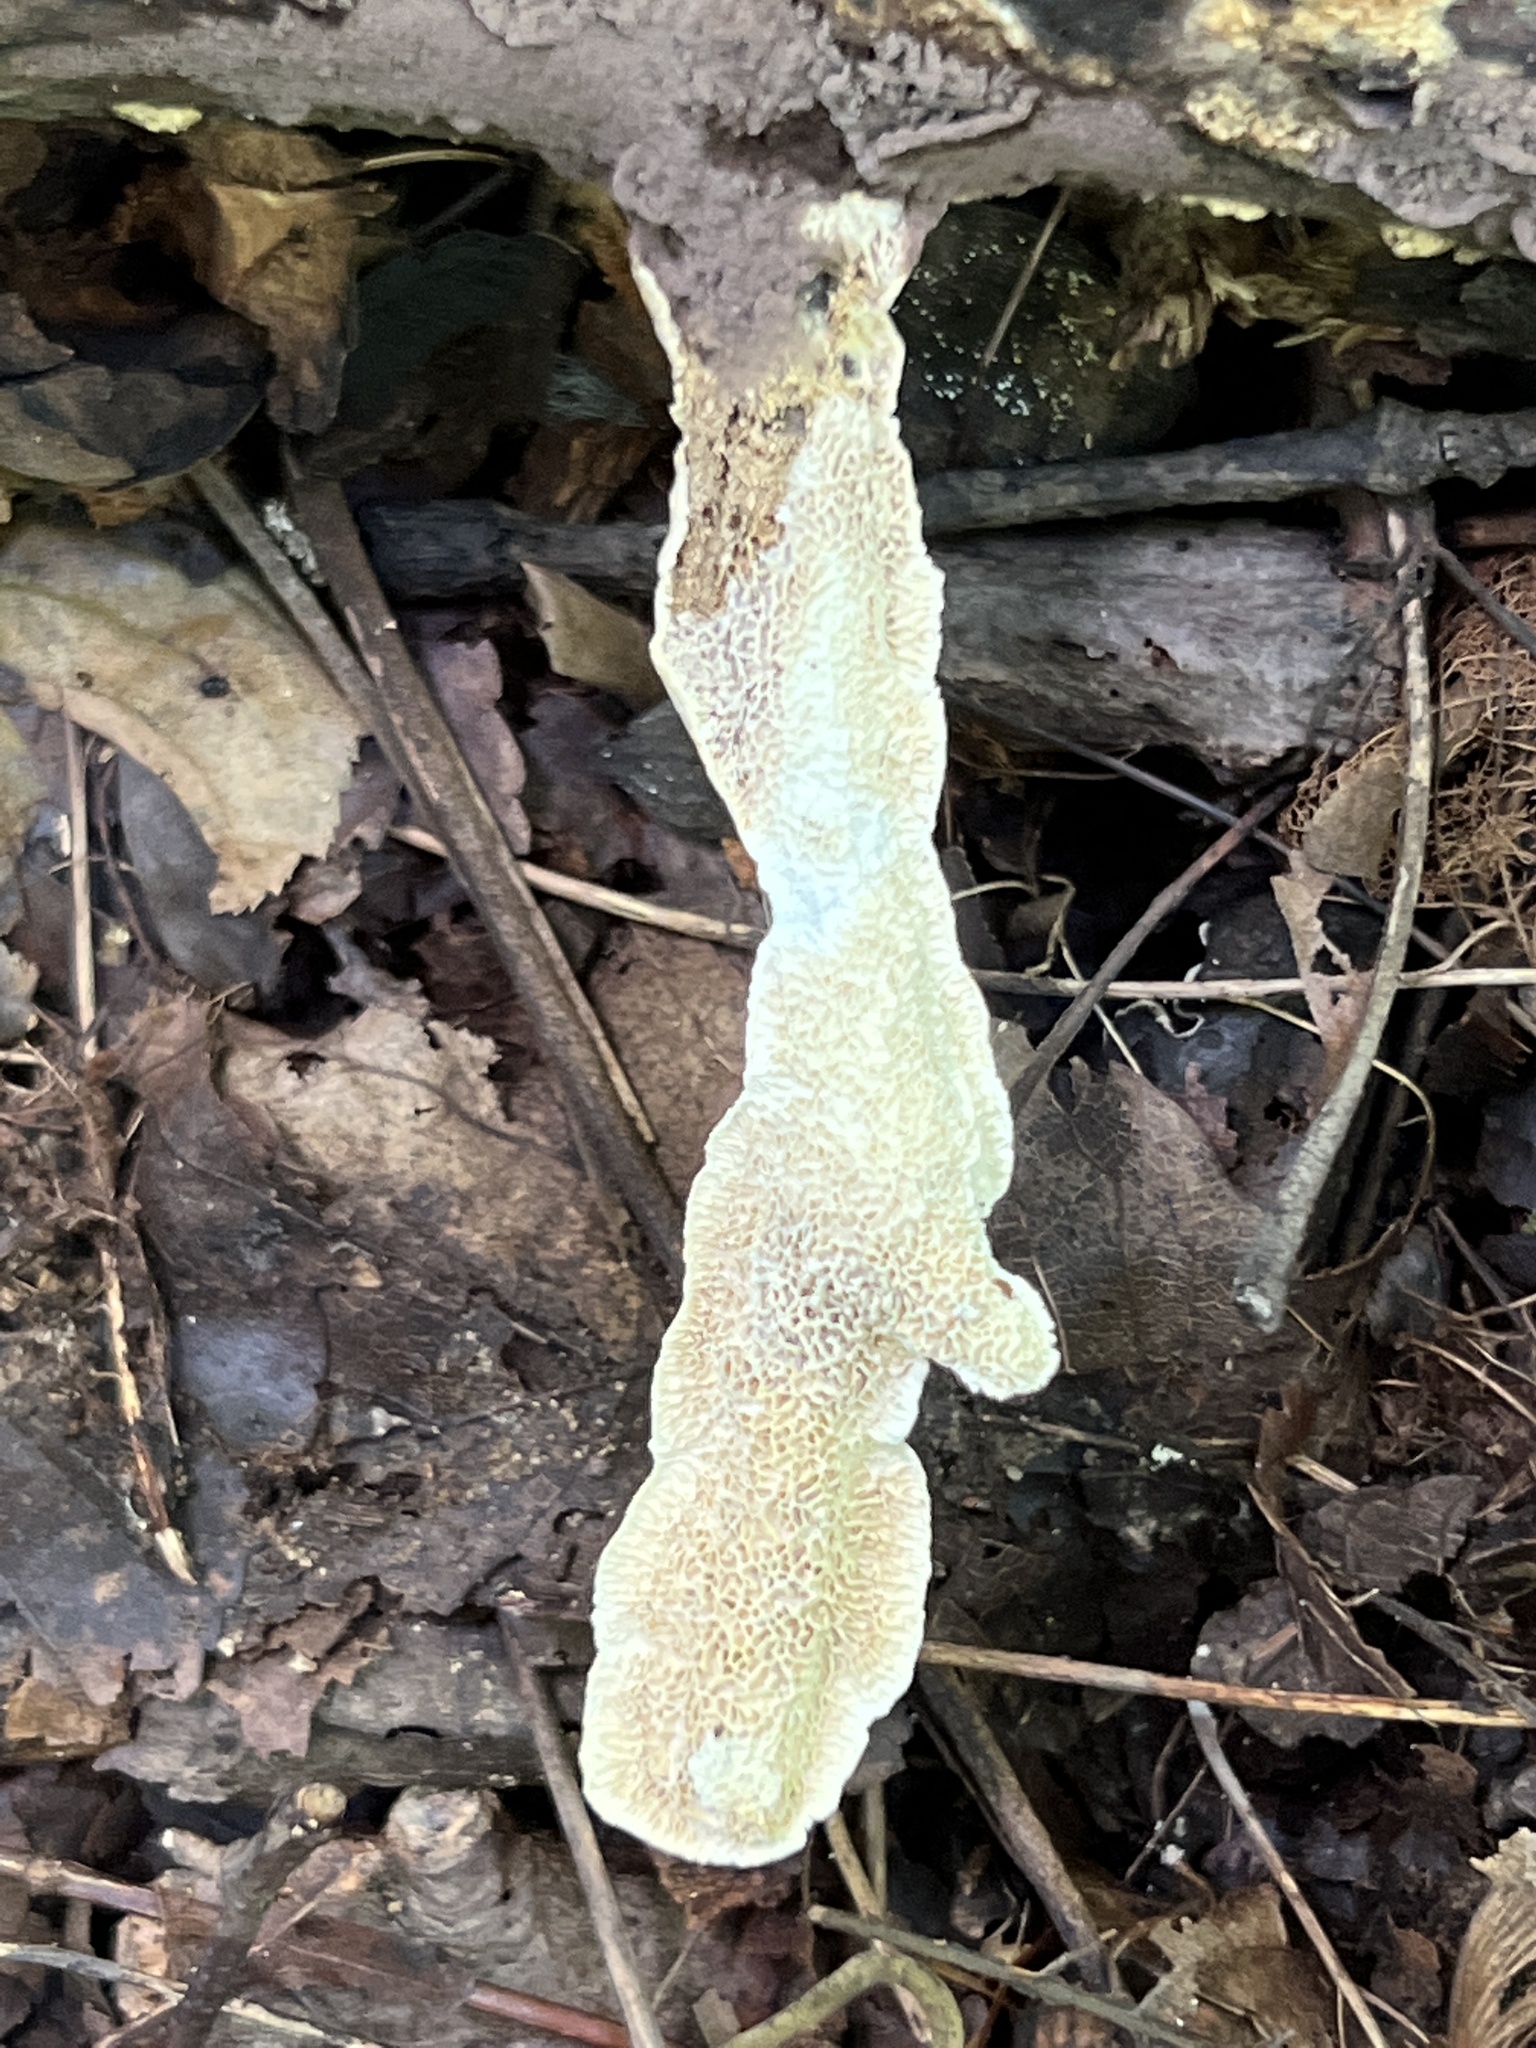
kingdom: Fungi
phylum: Basidiomycota
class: Agaricomycetes
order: Polyporales
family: Irpicaceae
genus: Irpex
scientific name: Irpex lacteus
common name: Milk-white toothed polypore
